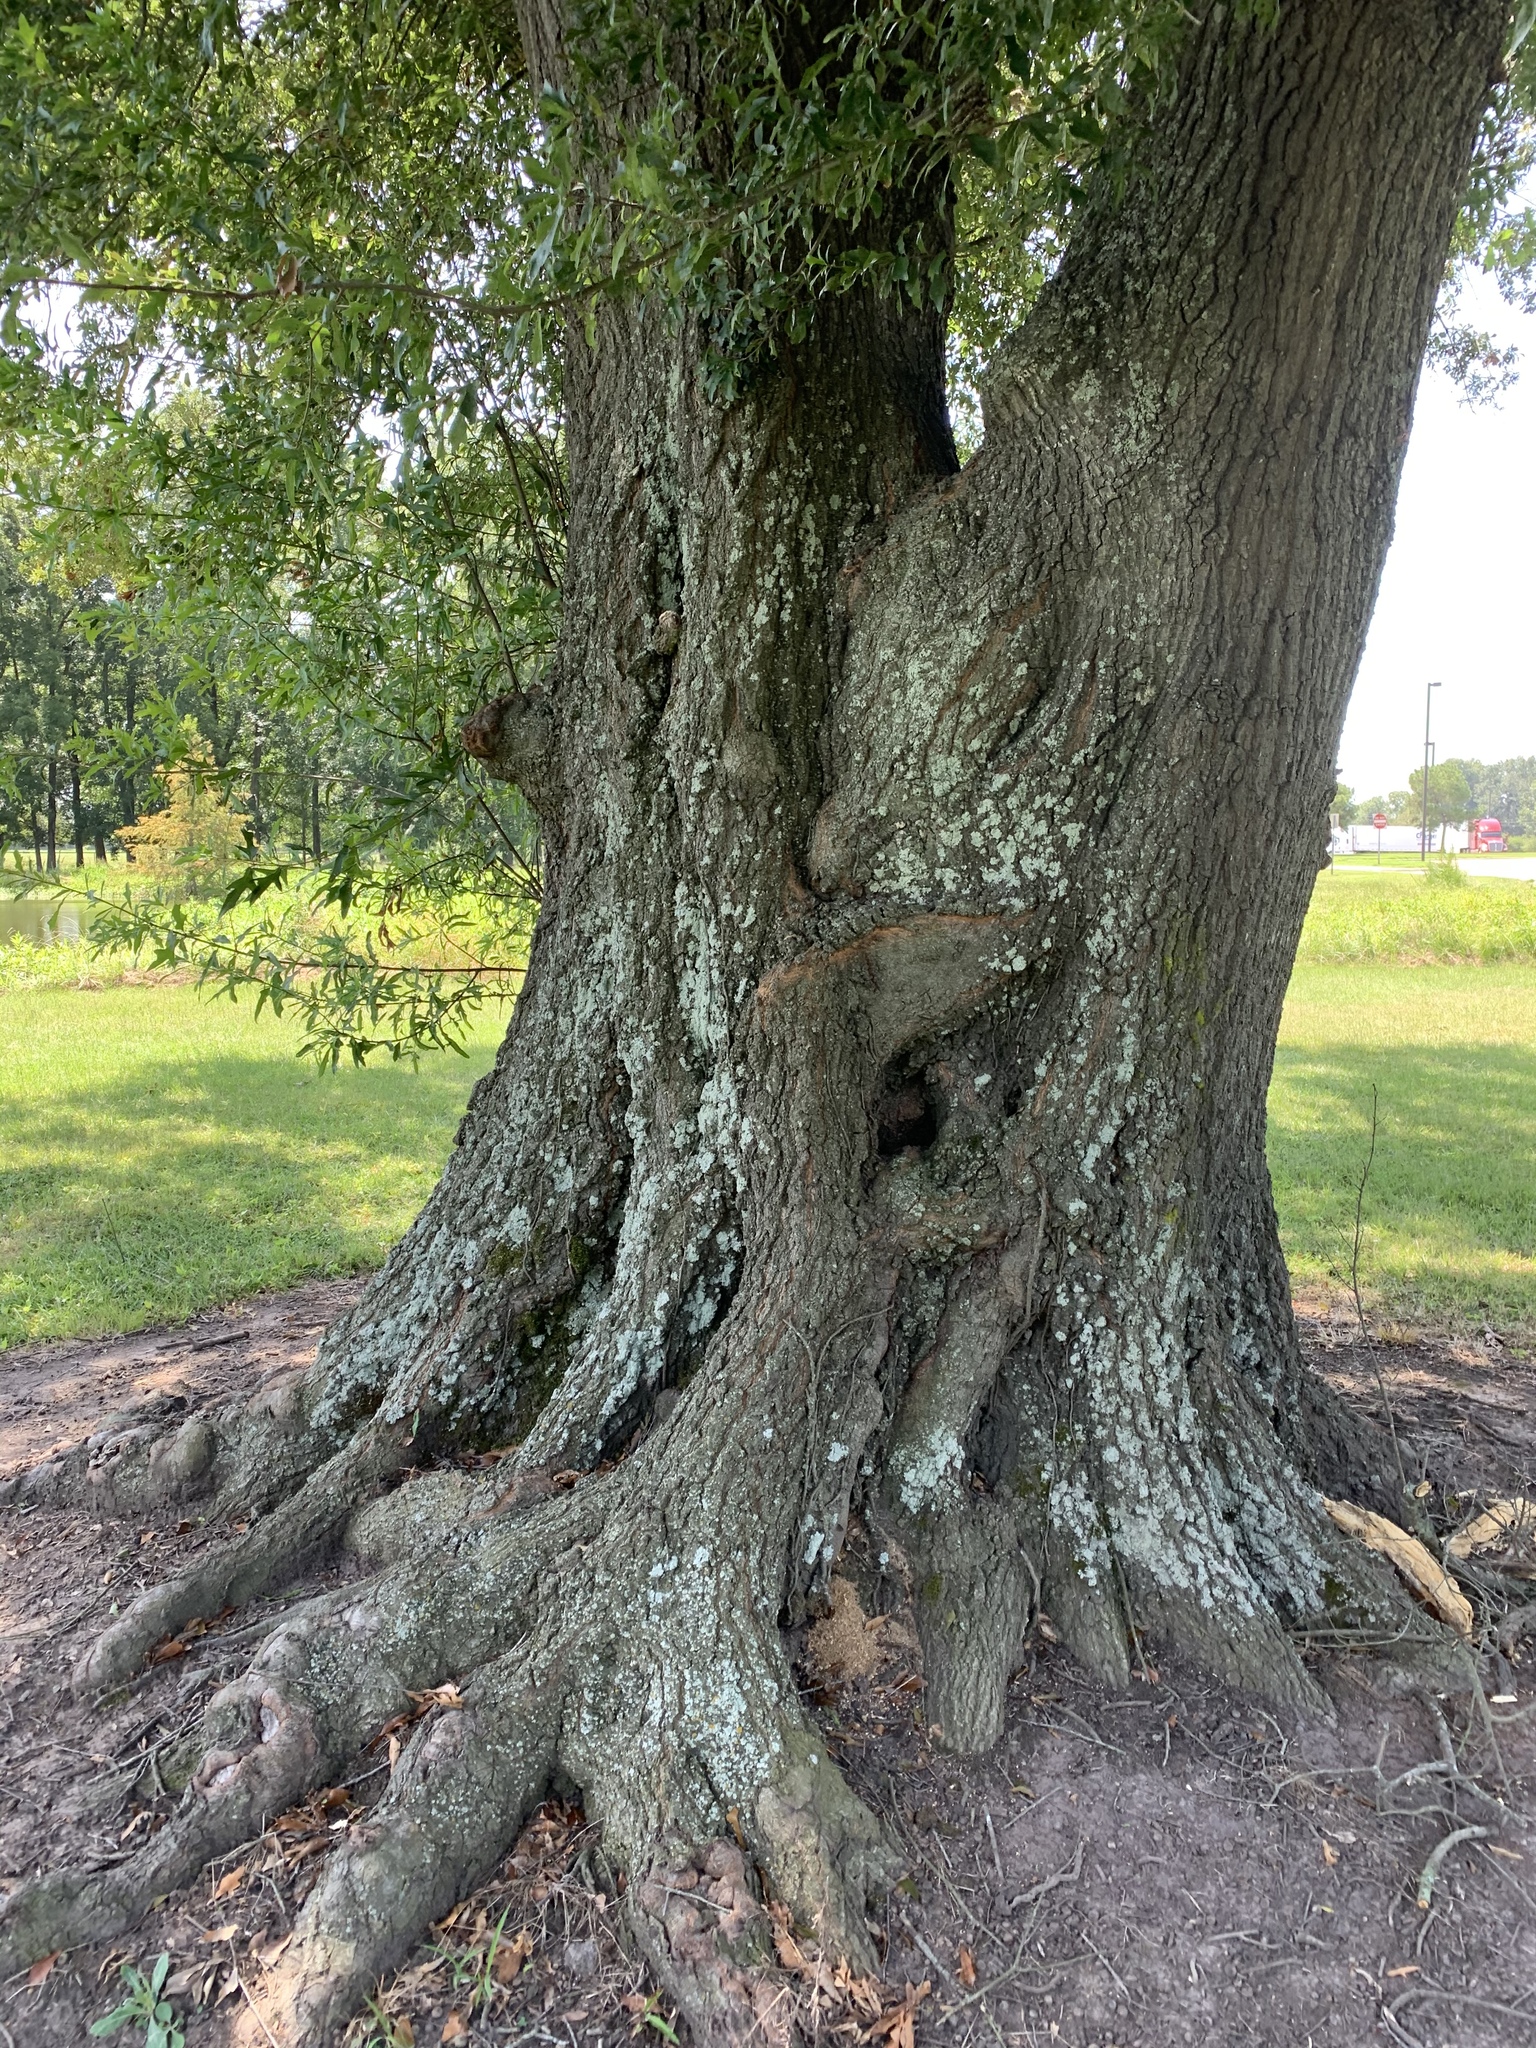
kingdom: Plantae
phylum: Tracheophyta
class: Magnoliopsida
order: Fagales
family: Fagaceae
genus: Quercus
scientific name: Quercus nigra
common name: Water oak
